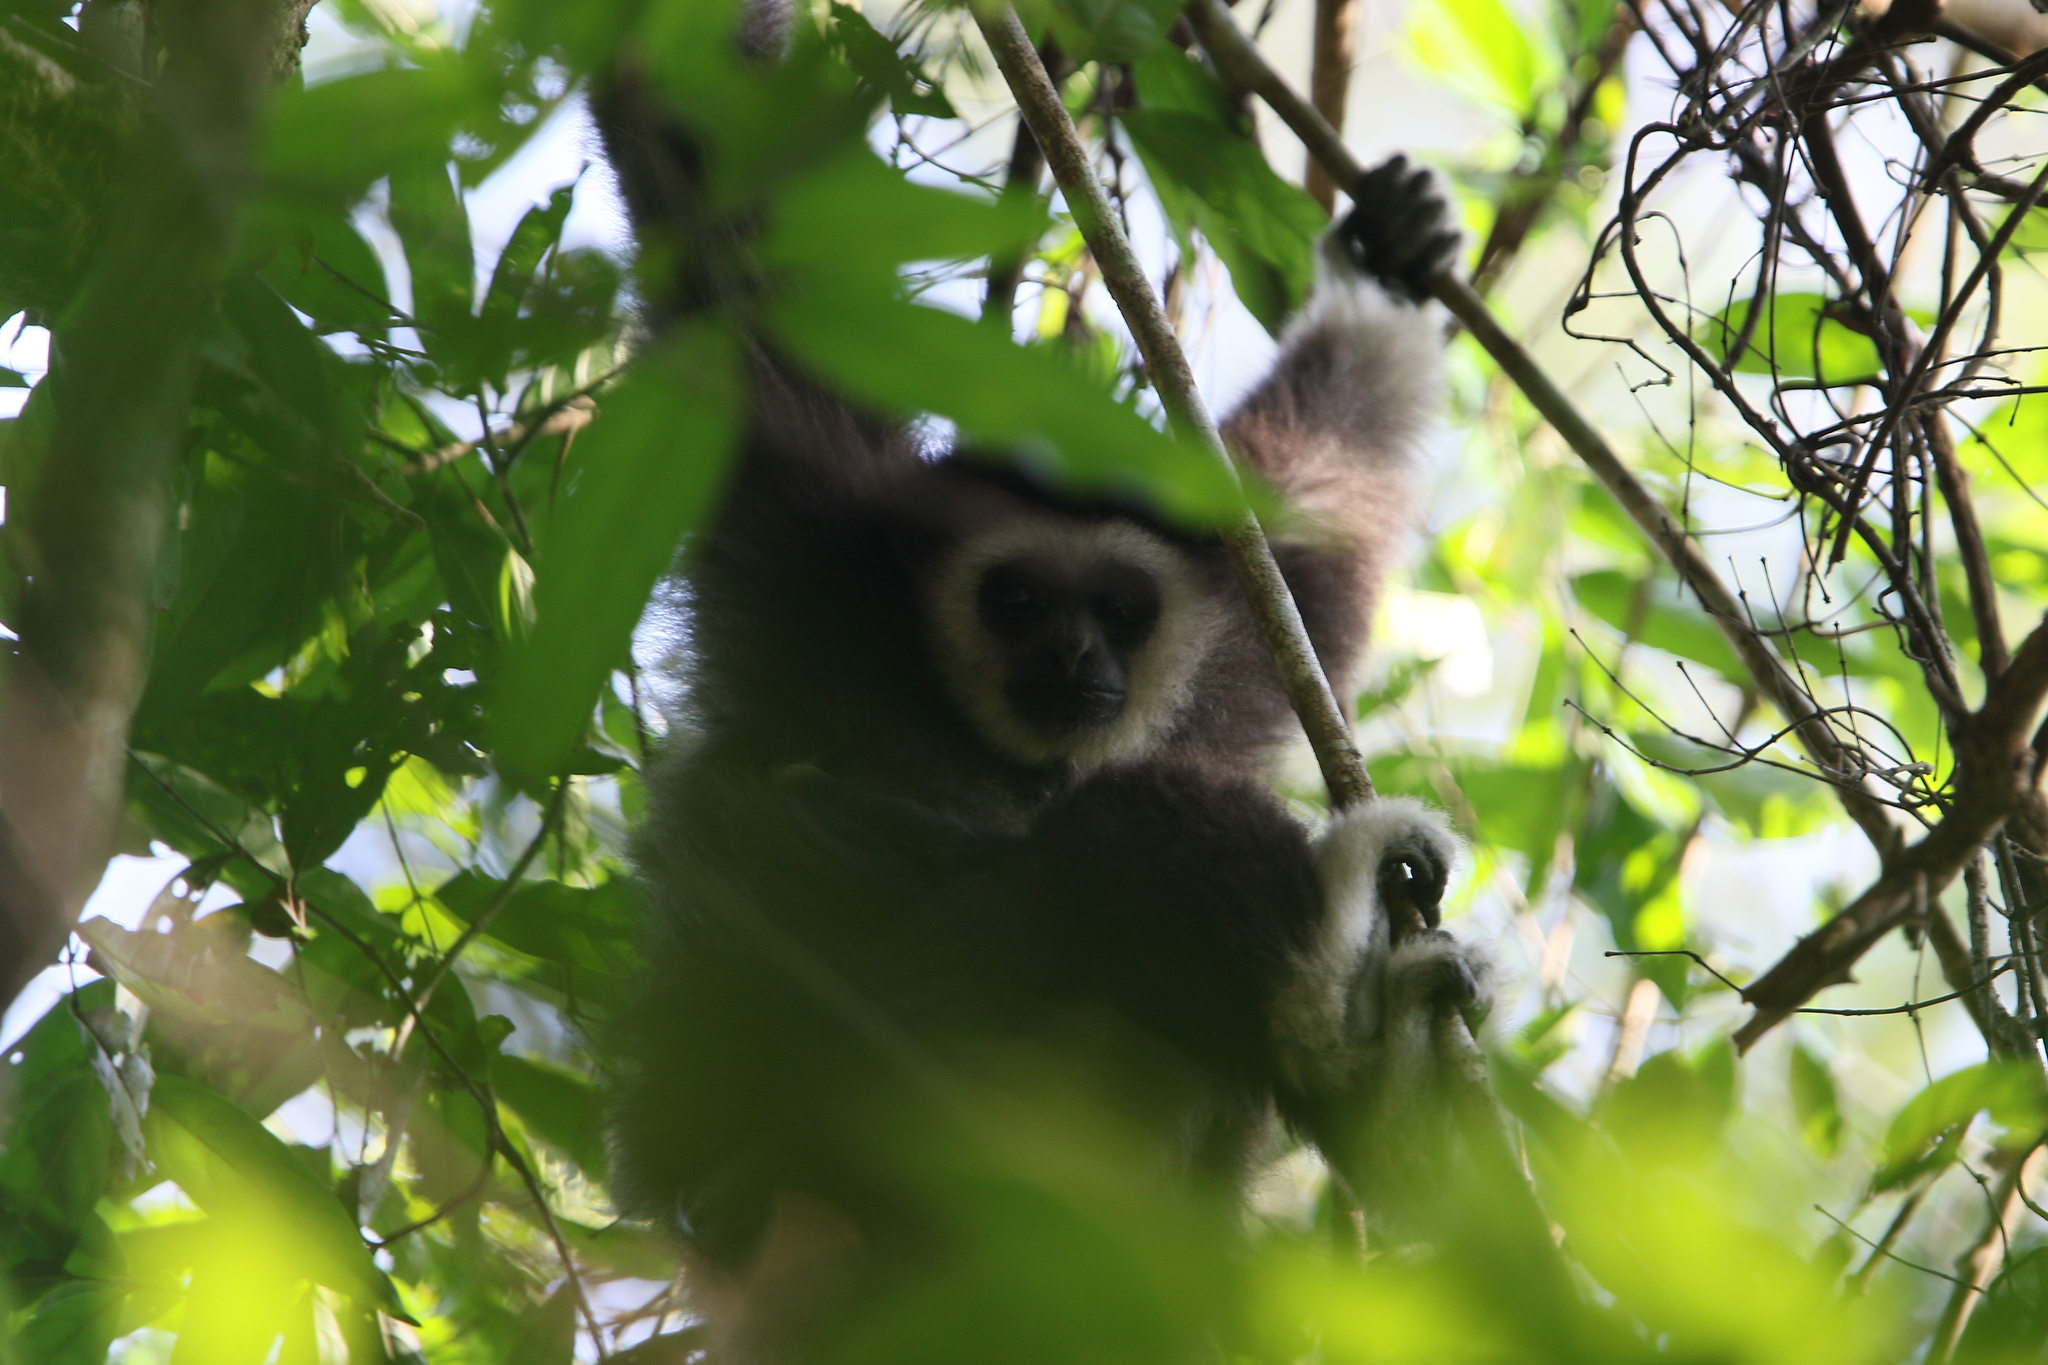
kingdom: Animalia
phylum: Chordata
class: Mammalia
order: Primates
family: Hylobatidae
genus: Hylobates
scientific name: Hylobates lar
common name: Lar gibbon
